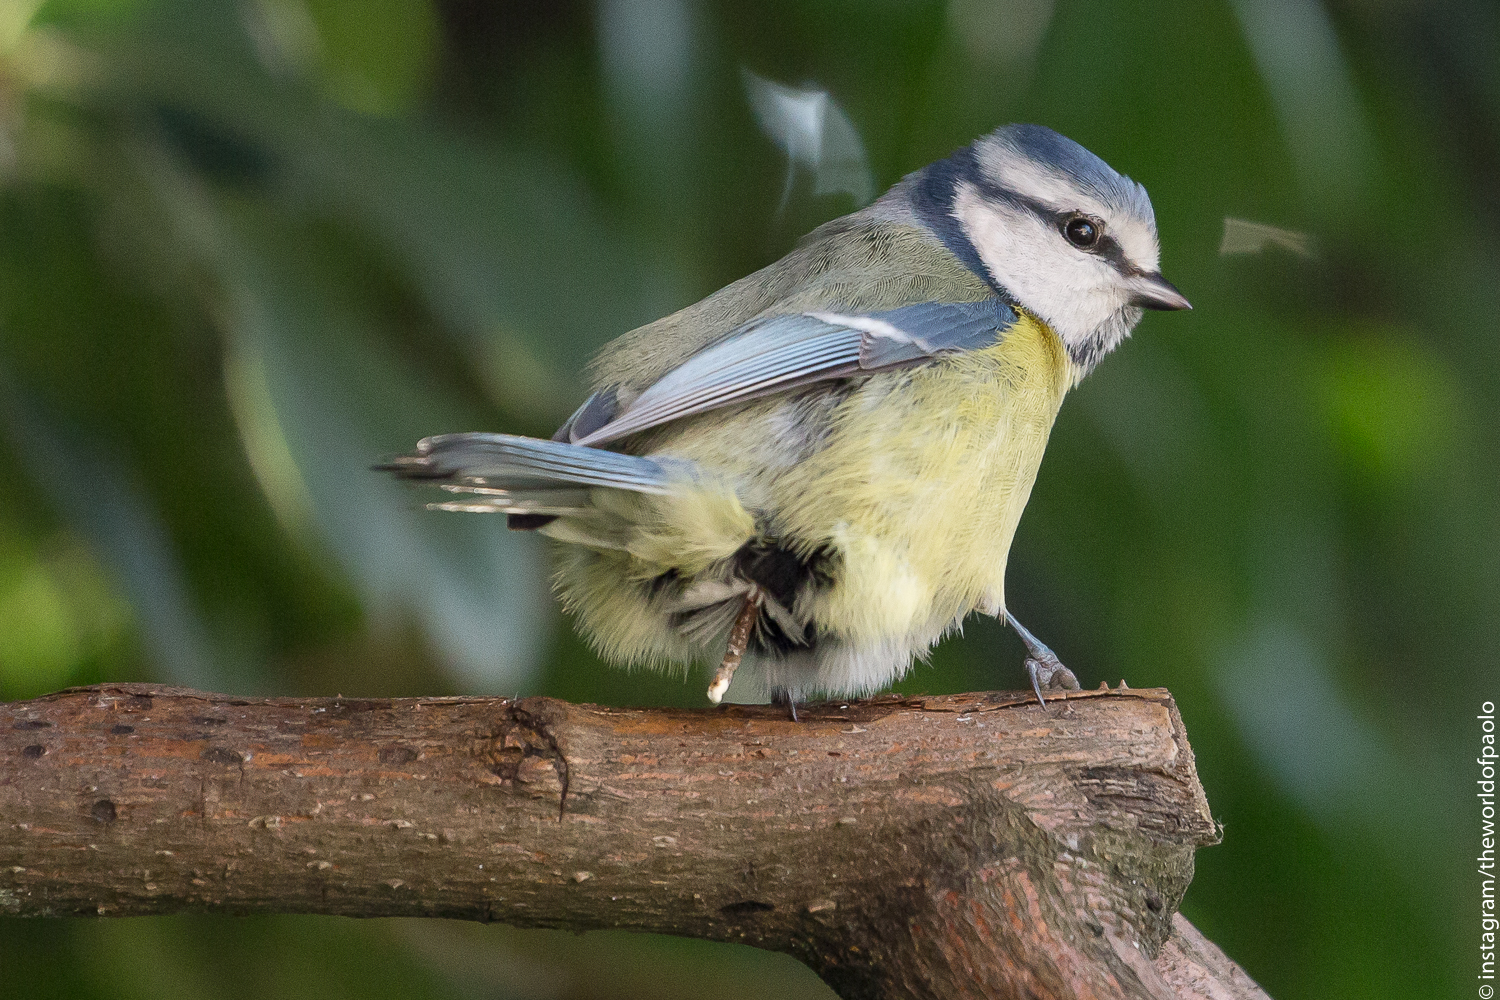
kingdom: Animalia
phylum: Chordata
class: Aves
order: Passeriformes
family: Paridae
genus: Cyanistes
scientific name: Cyanistes caeruleus
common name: Eurasian blue tit
